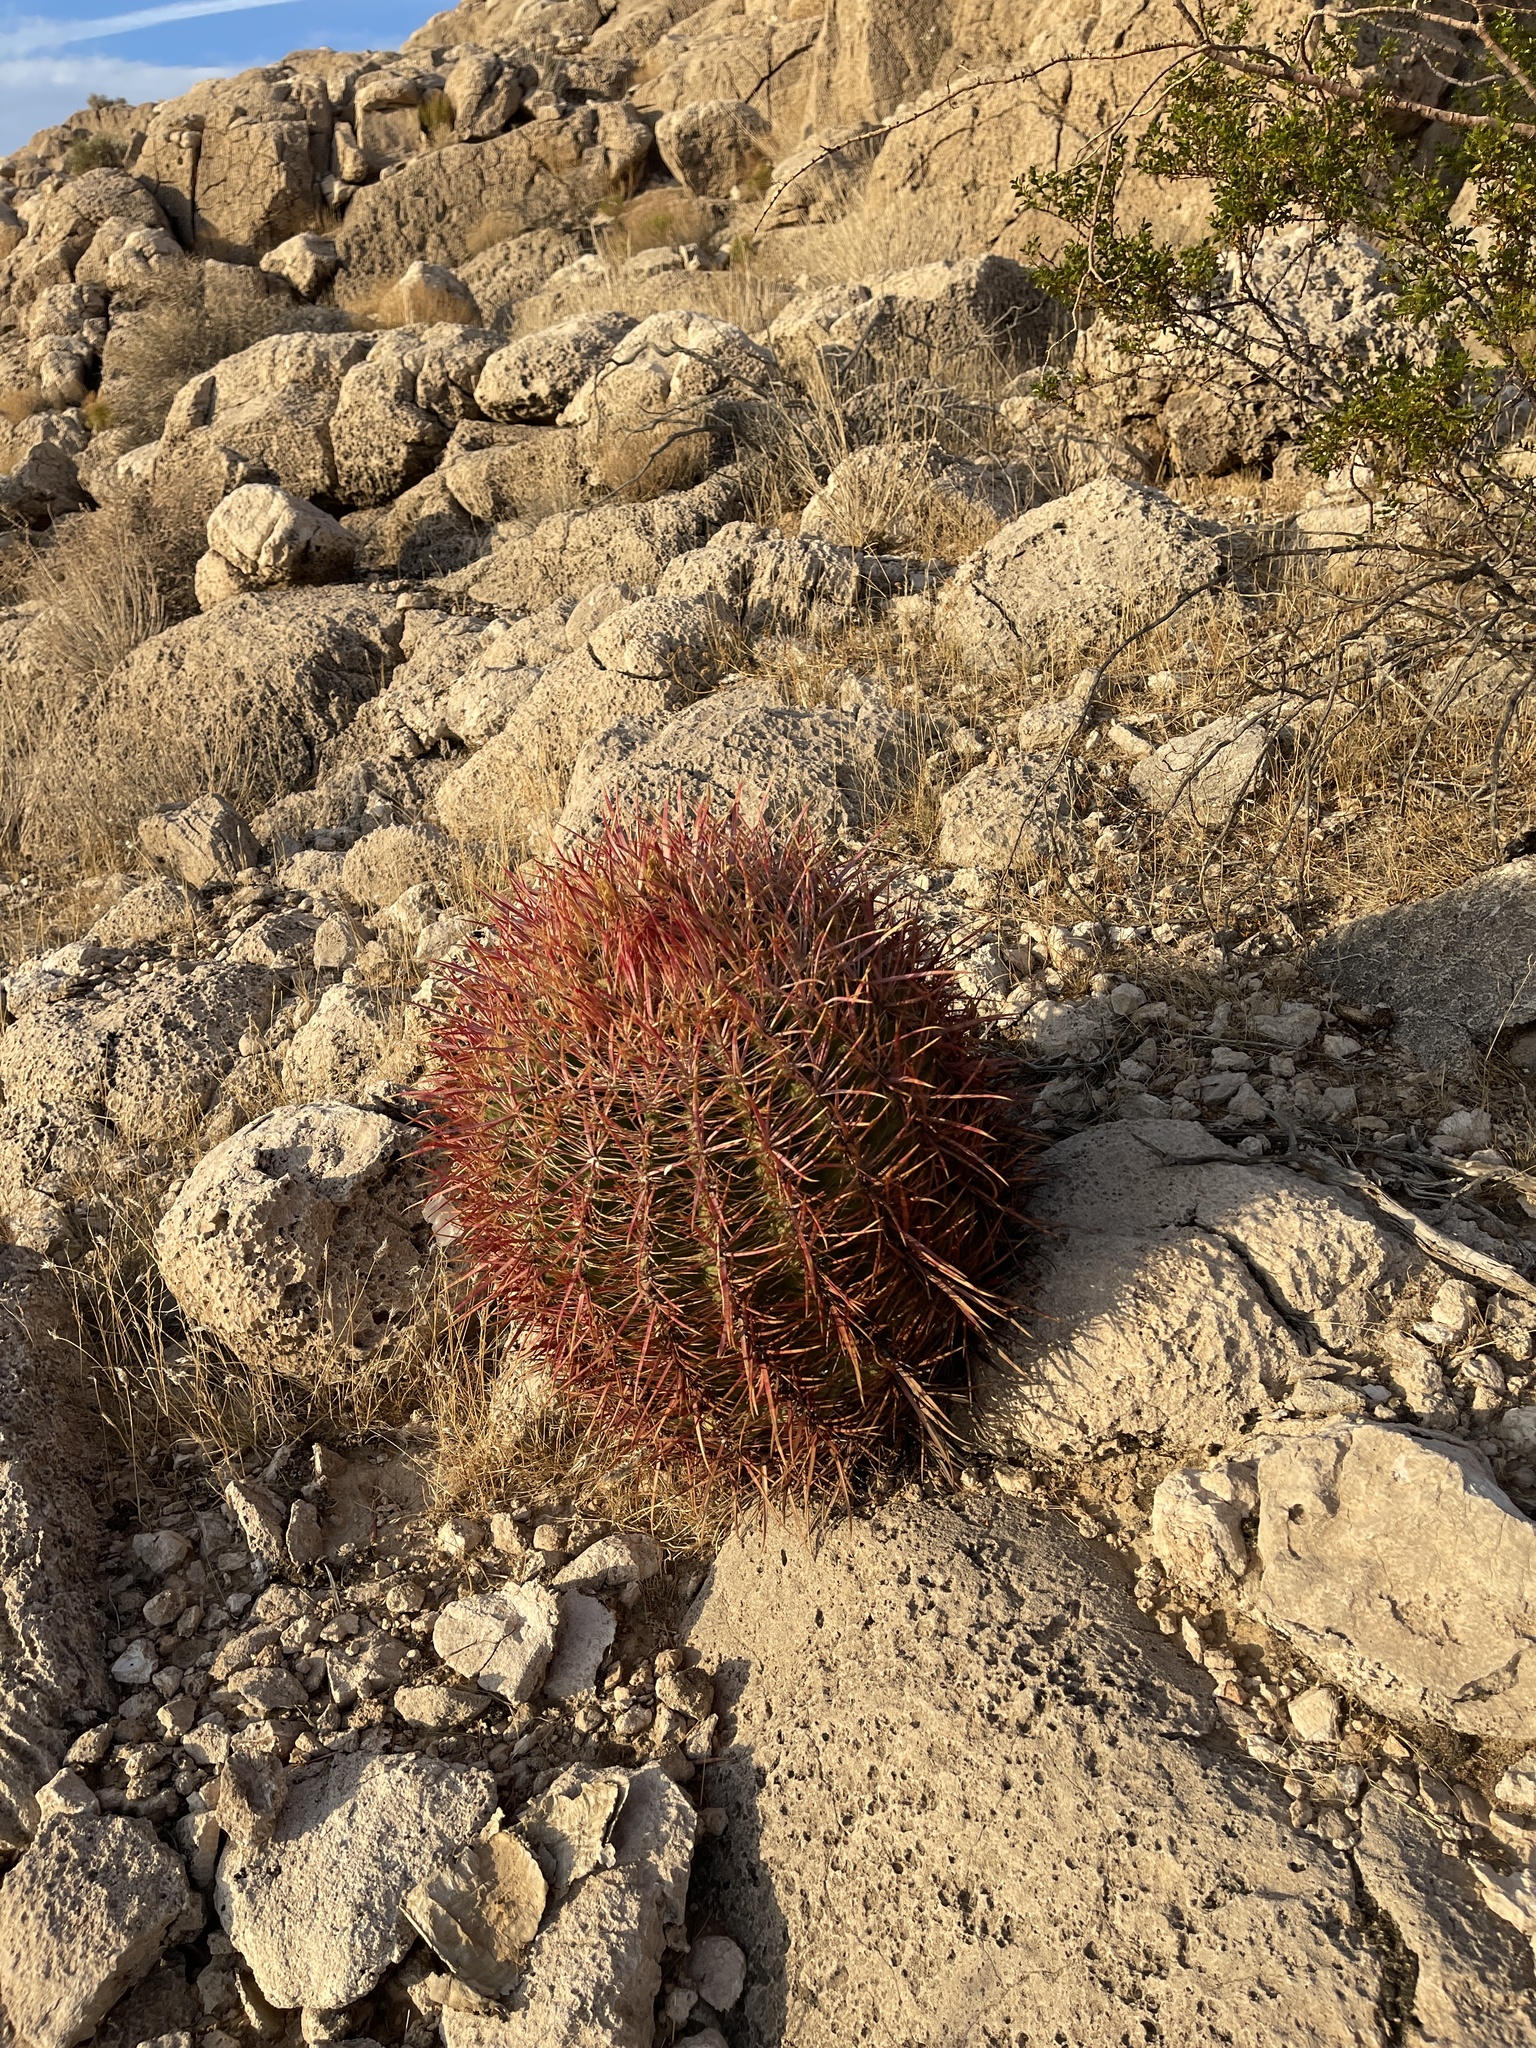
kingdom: Plantae
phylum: Tracheophyta
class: Magnoliopsida
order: Caryophyllales
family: Cactaceae
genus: Ferocactus
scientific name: Ferocactus cylindraceus
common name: California barrel cactus
